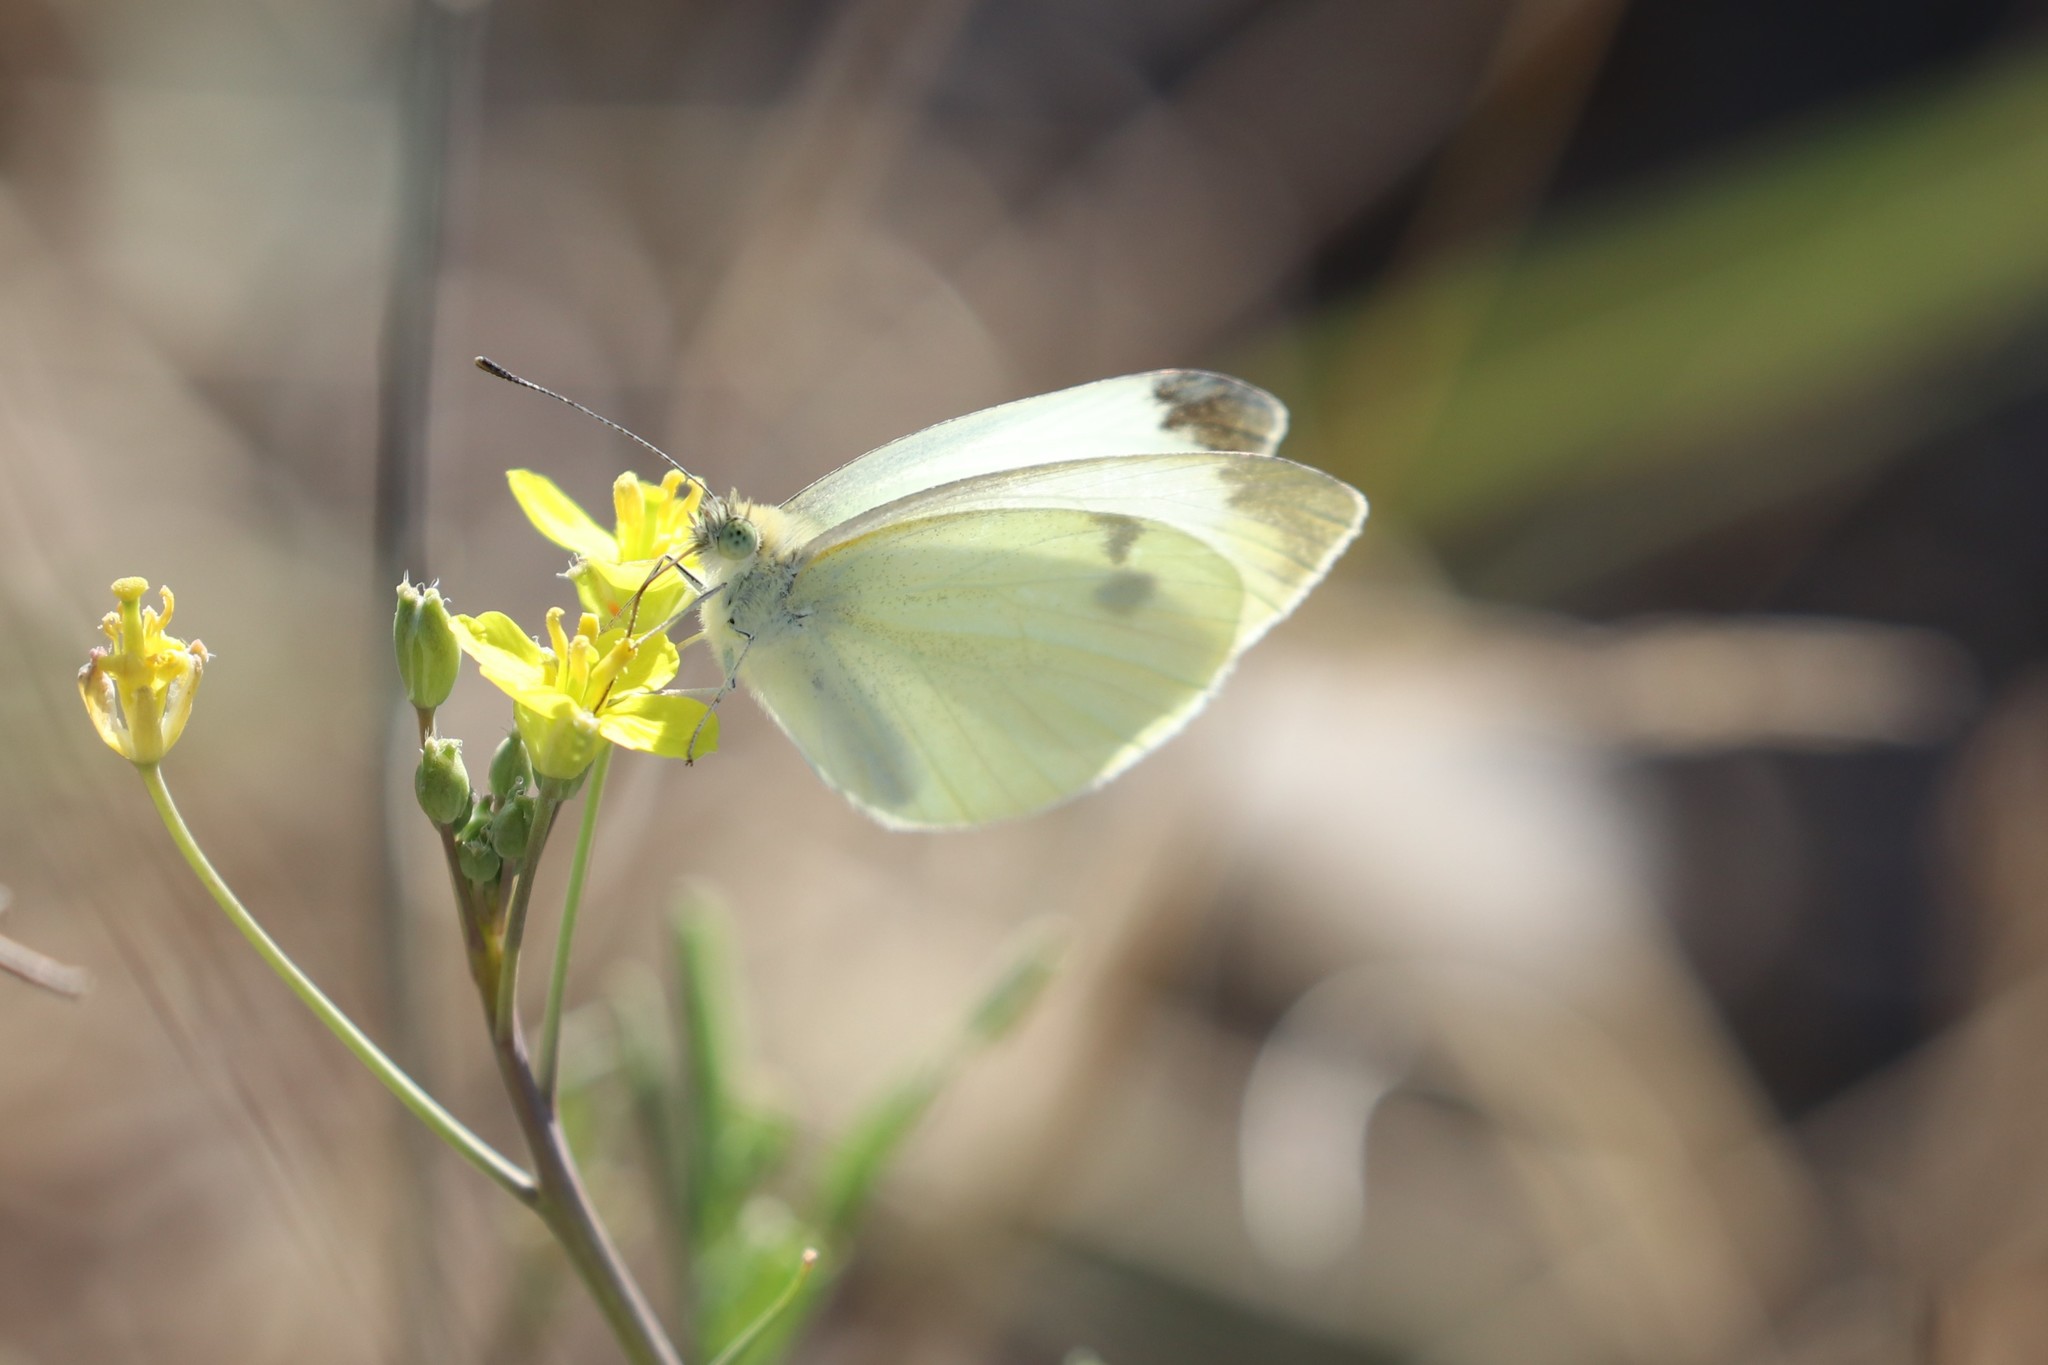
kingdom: Animalia
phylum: Arthropoda
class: Insecta
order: Lepidoptera
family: Pieridae
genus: Pieris
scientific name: Pieris mannii
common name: Southern small white
